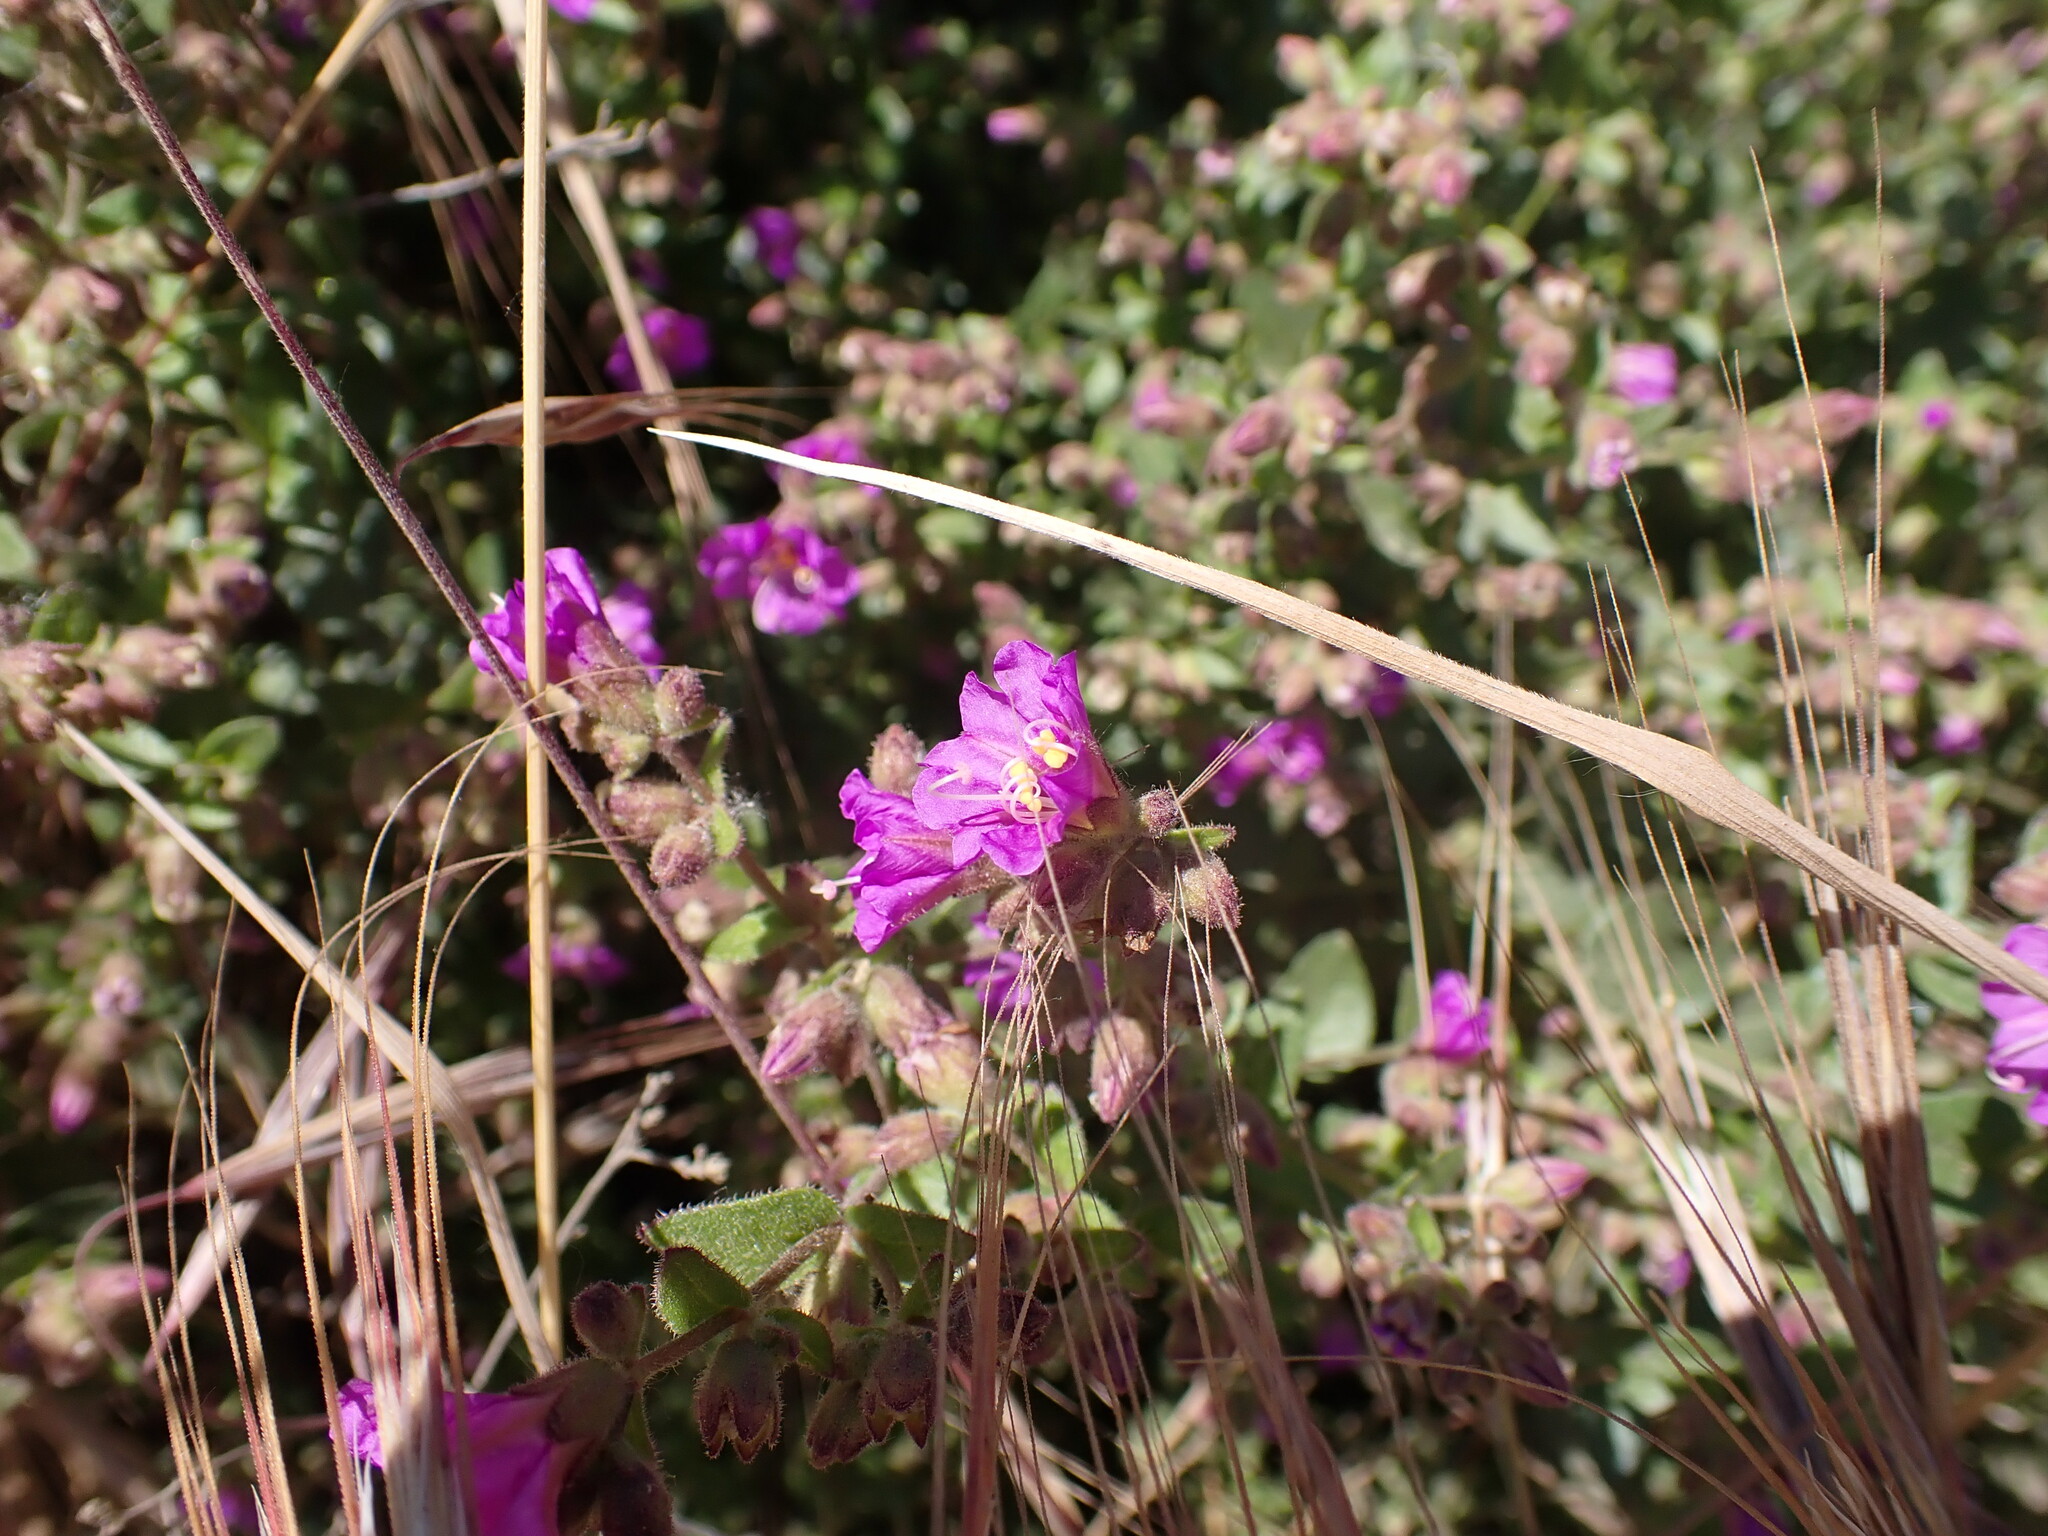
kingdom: Plantae
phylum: Tracheophyta
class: Magnoliopsida
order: Caryophyllales
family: Nyctaginaceae
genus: Mirabilis
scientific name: Mirabilis laevis
